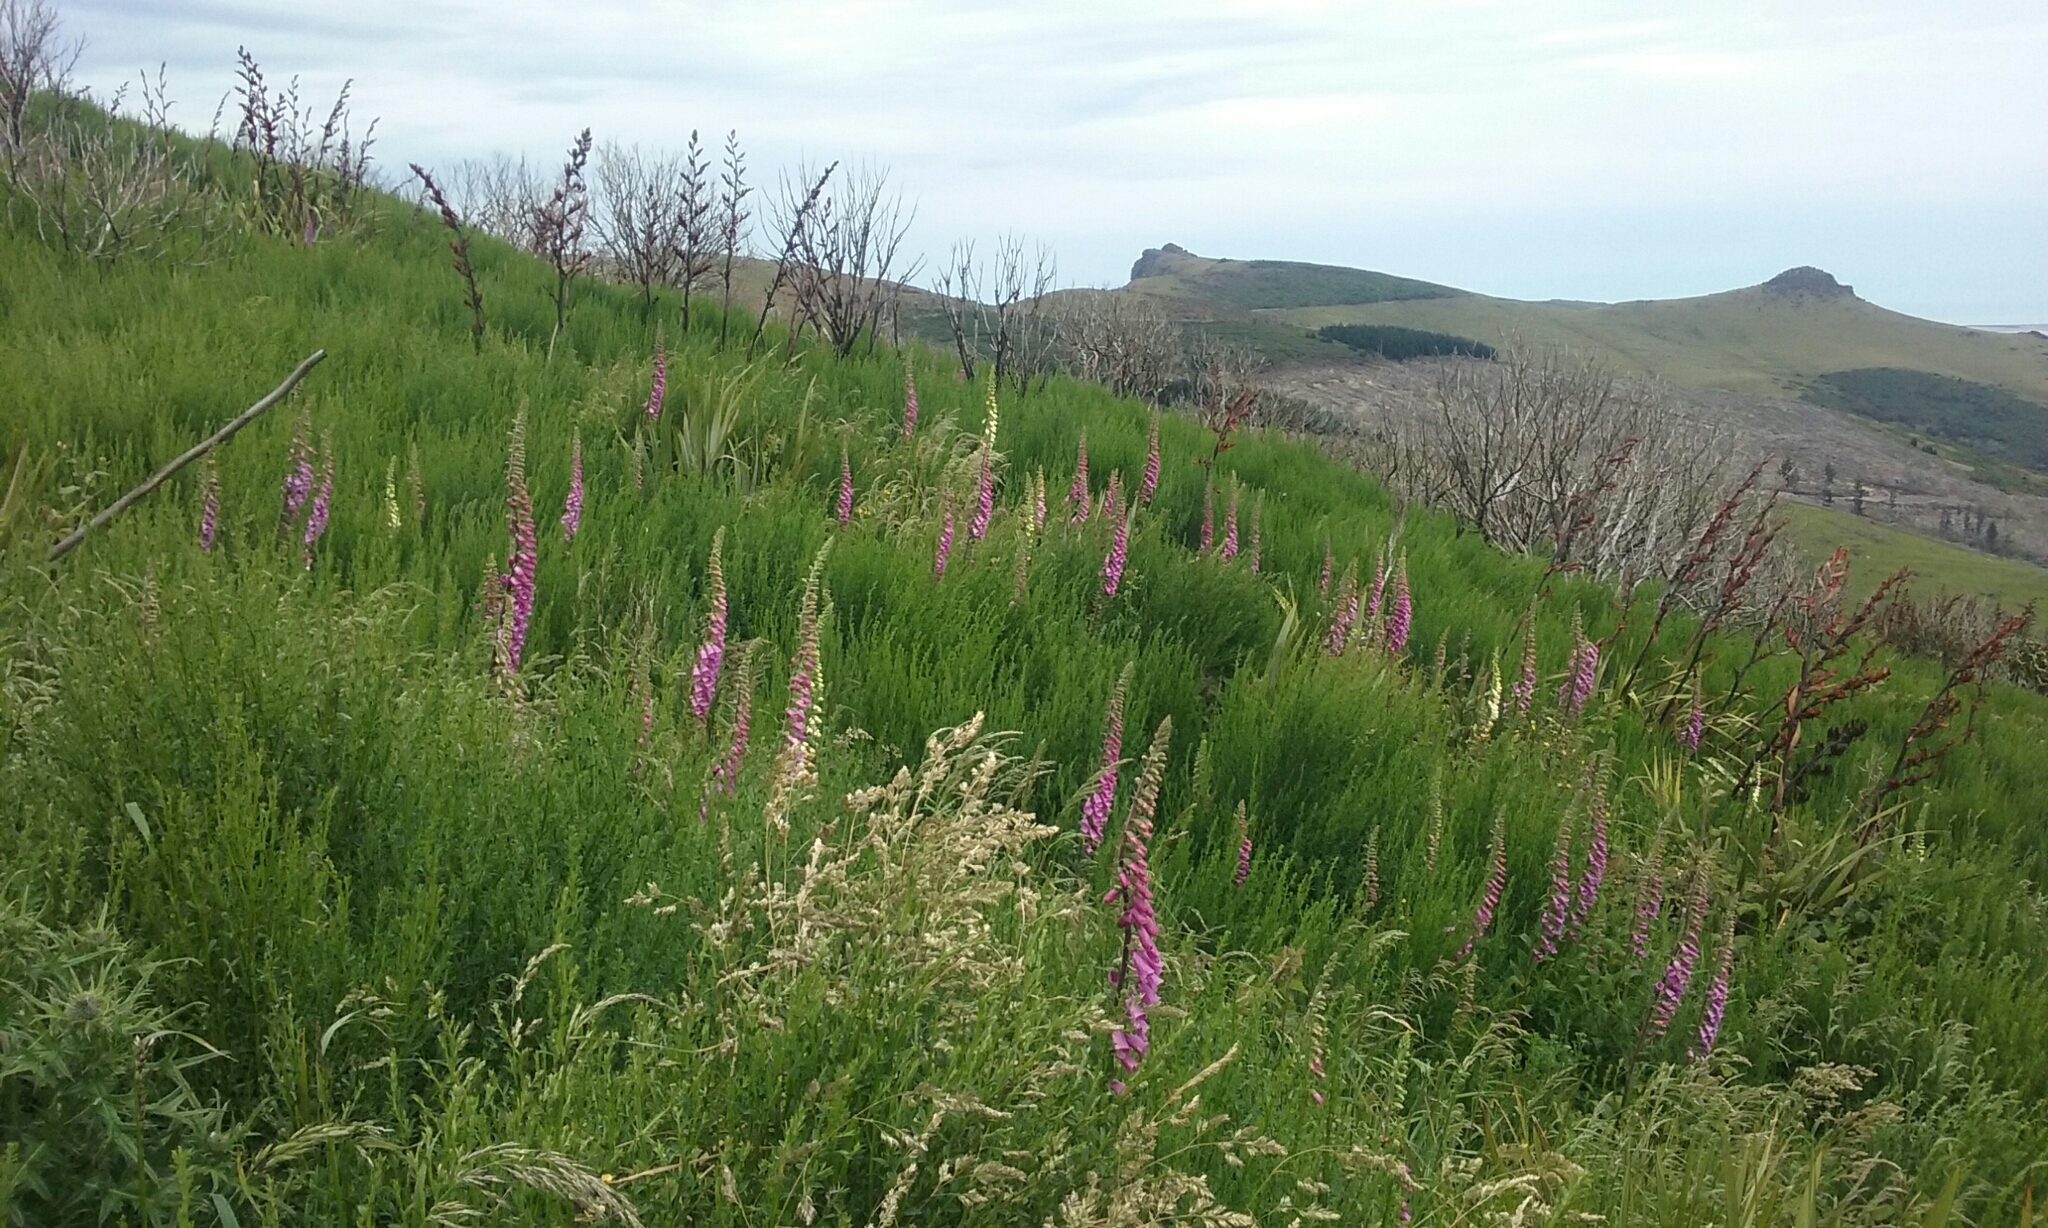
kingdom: Plantae
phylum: Tracheophyta
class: Magnoliopsida
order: Lamiales
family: Plantaginaceae
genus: Digitalis
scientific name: Digitalis purpurea
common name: Foxglove
